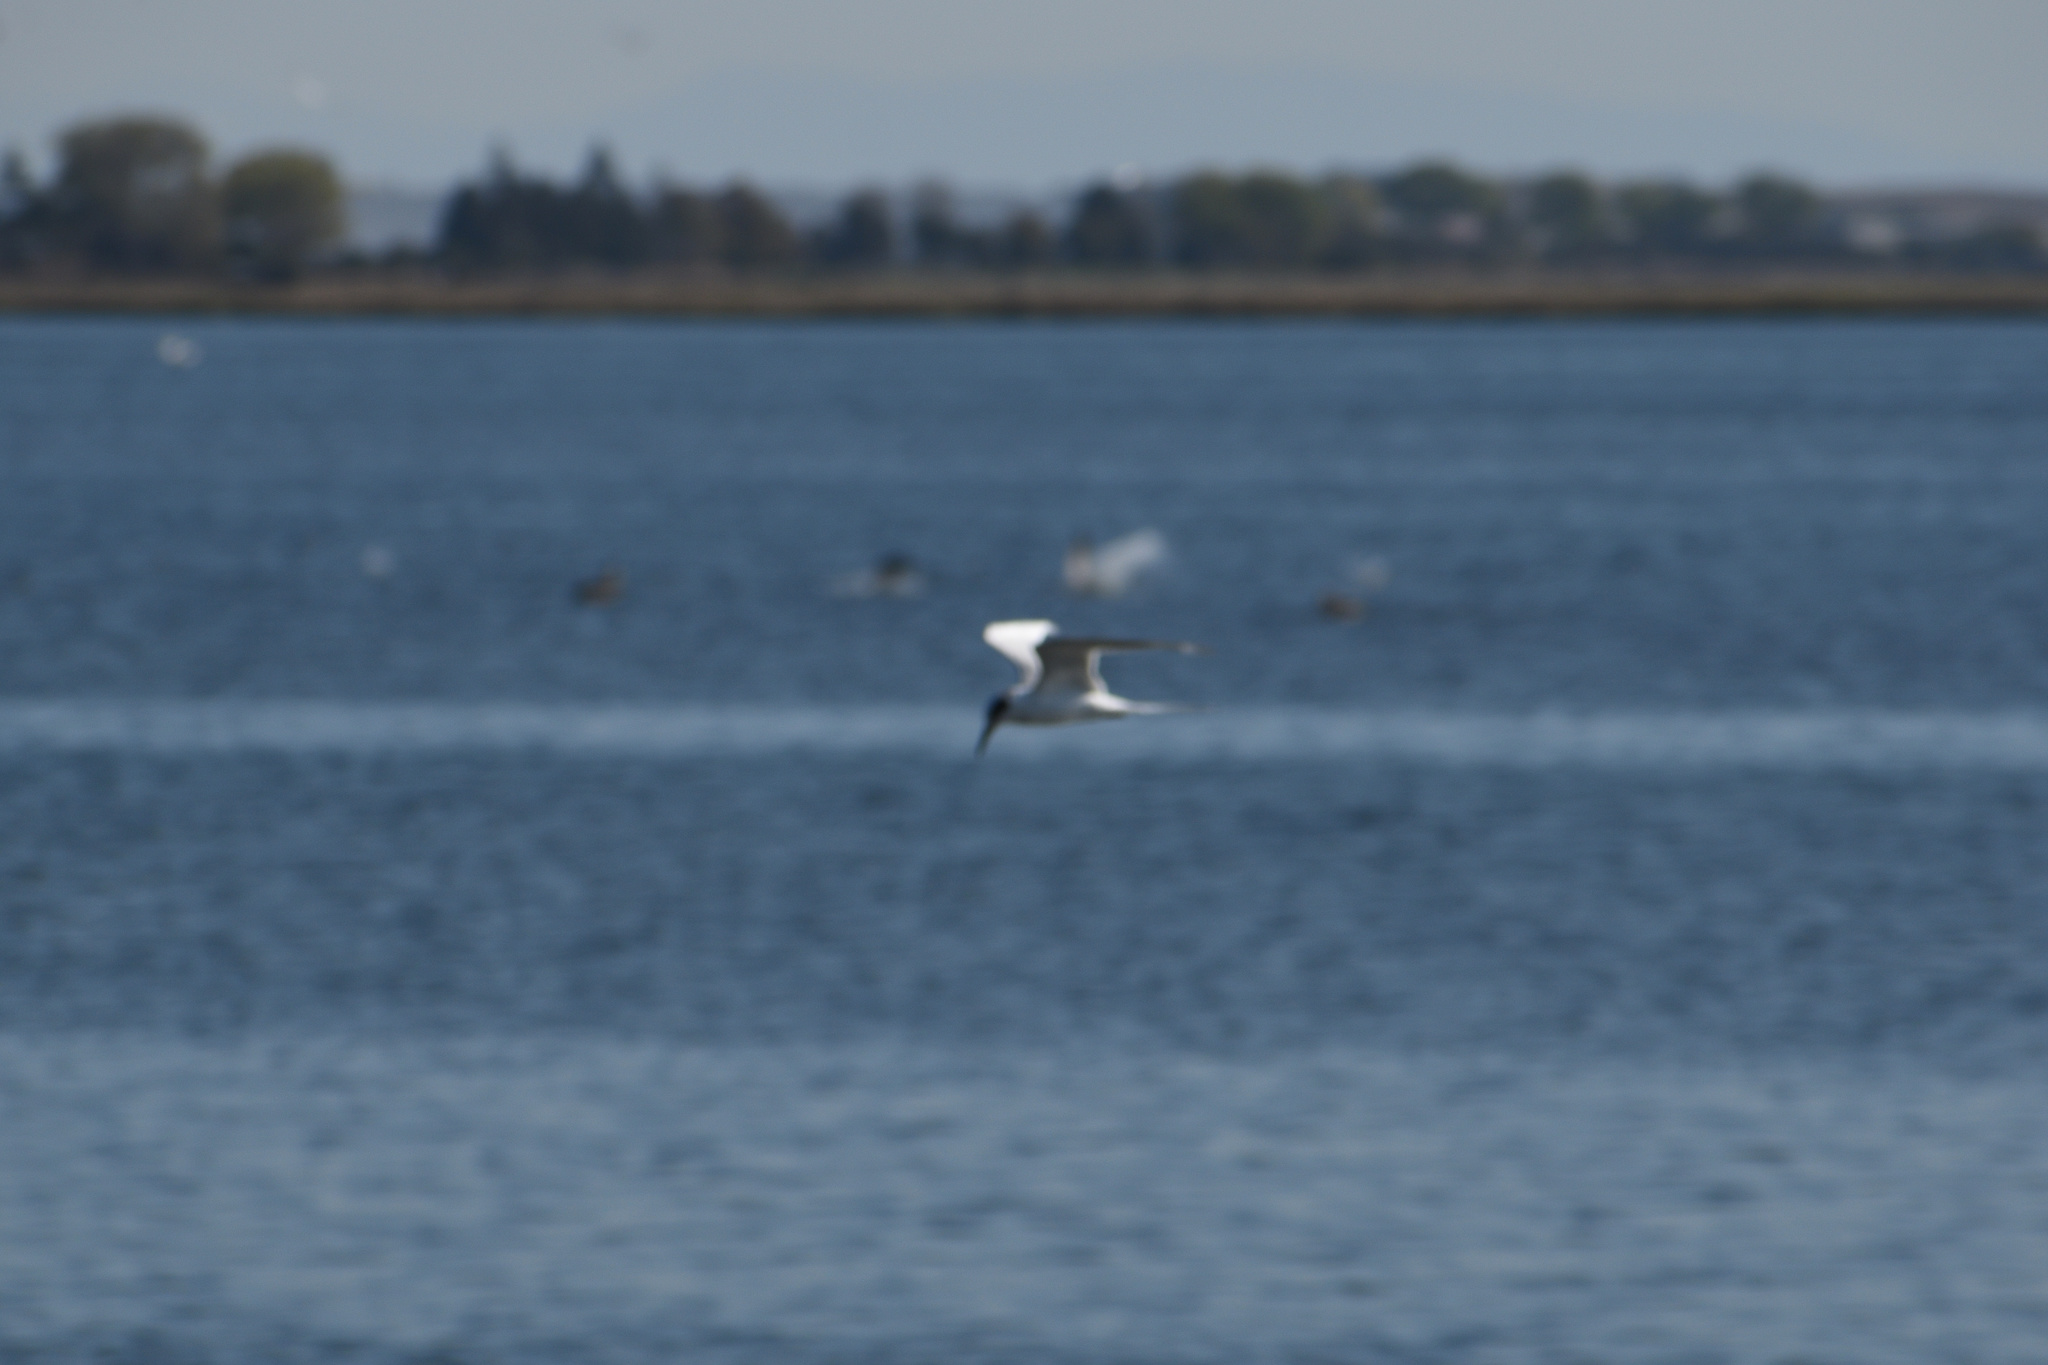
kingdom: Animalia
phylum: Chordata
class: Aves
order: Charadriiformes
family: Laridae
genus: Sterna
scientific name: Sterna forsteri
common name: Forster's tern
